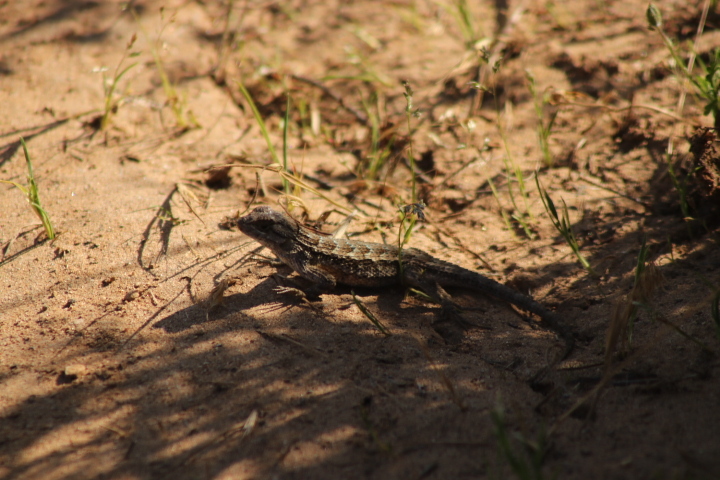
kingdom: Animalia
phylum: Chordata
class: Squamata
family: Phrynosomatidae
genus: Sceloporus
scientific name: Sceloporus occidentalis
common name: Western fence lizard
